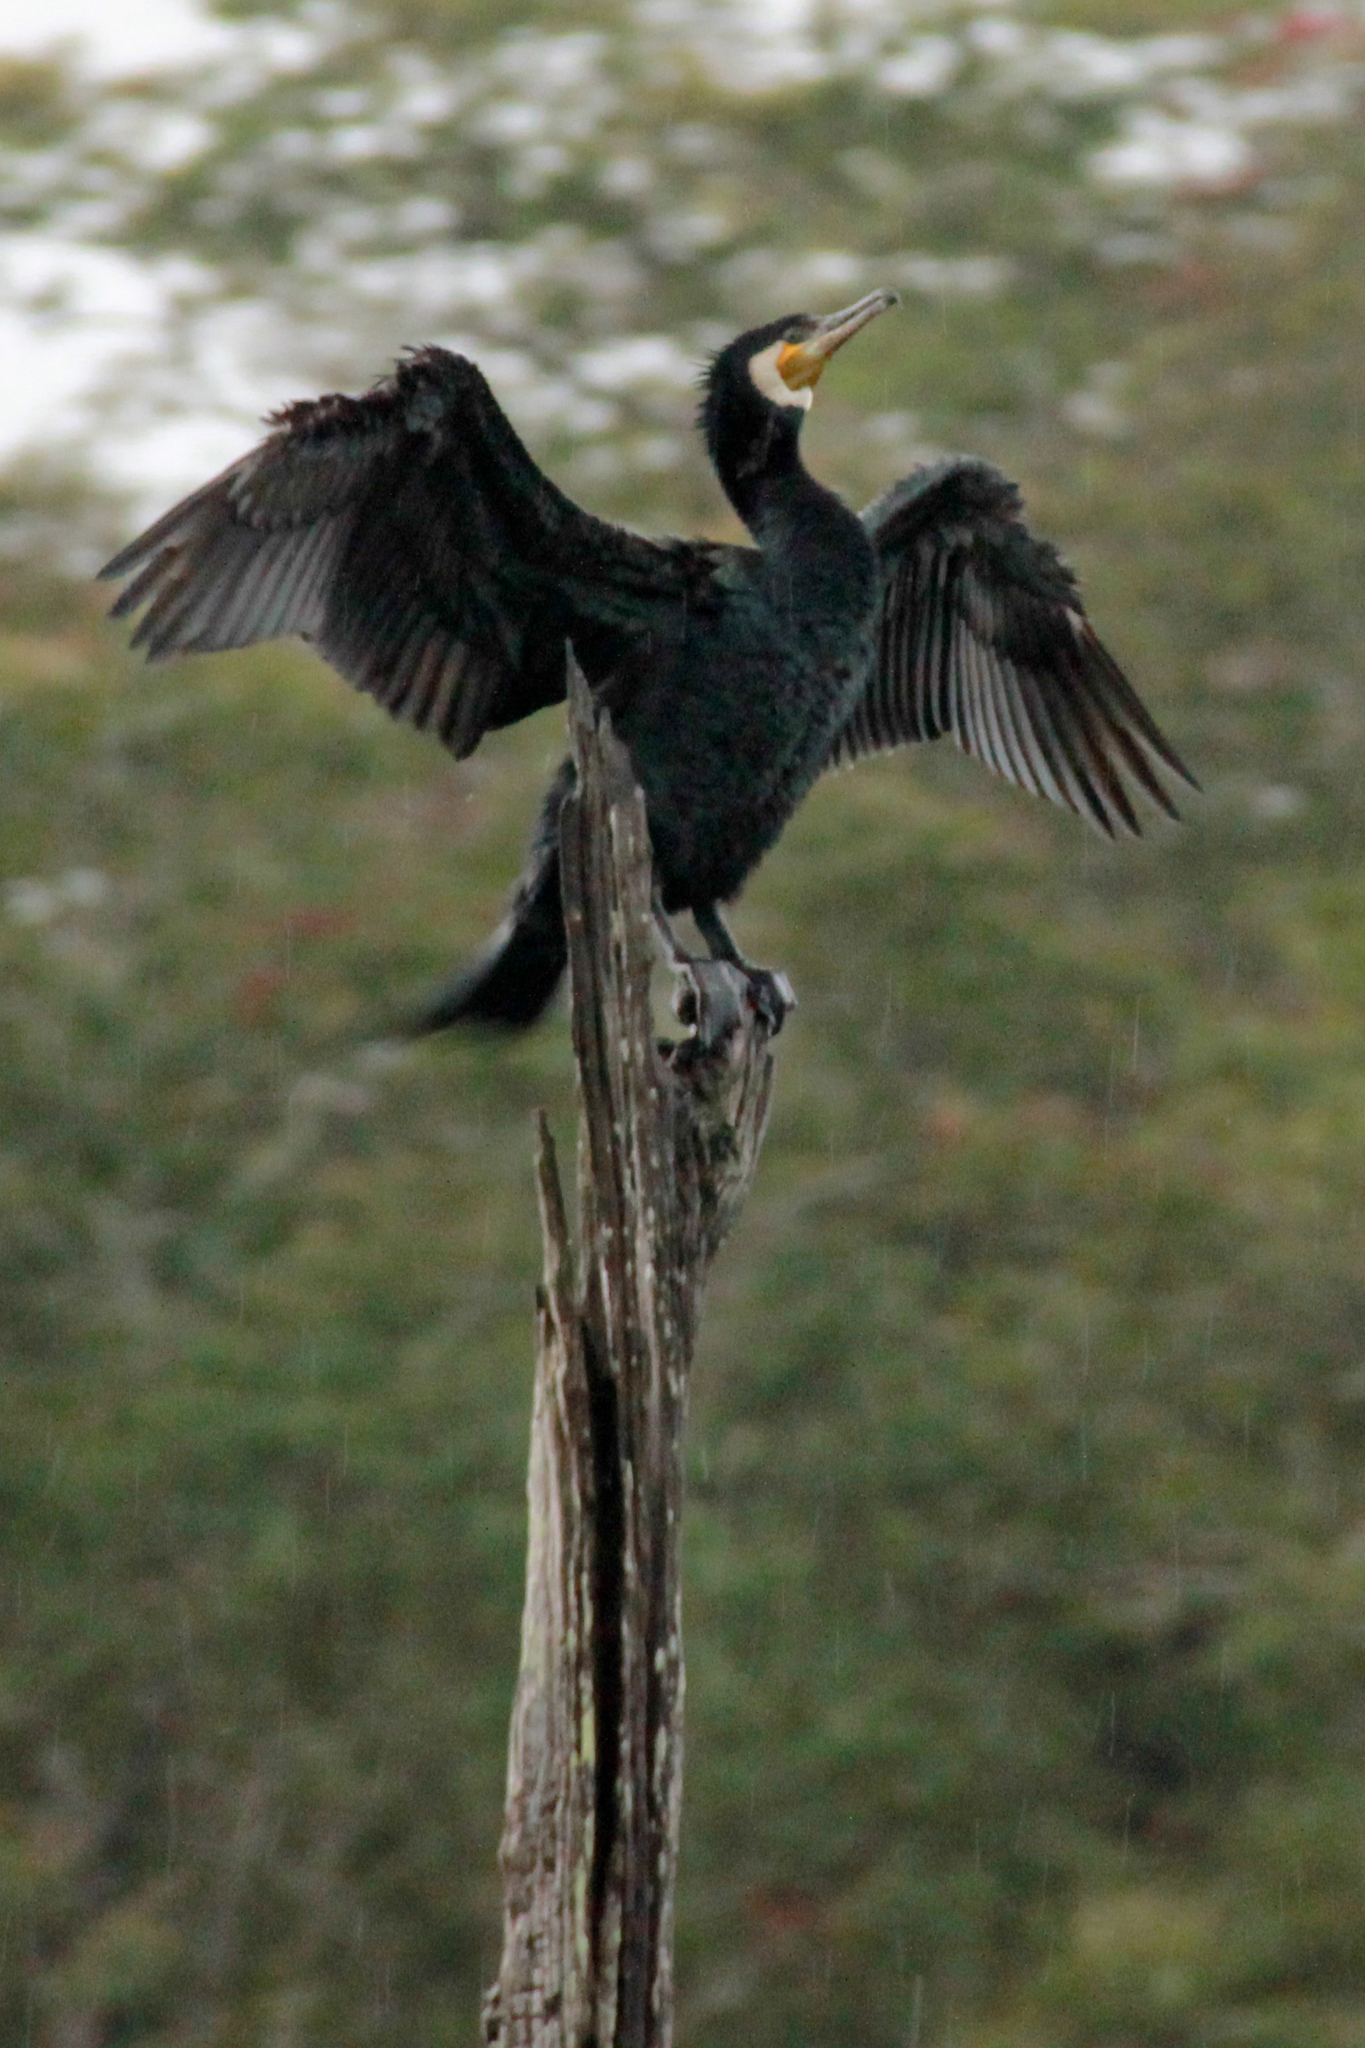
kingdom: Animalia
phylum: Chordata
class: Aves
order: Suliformes
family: Phalacrocoracidae
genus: Phalacrocorax
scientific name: Phalacrocorax carbo
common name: Great cormorant
